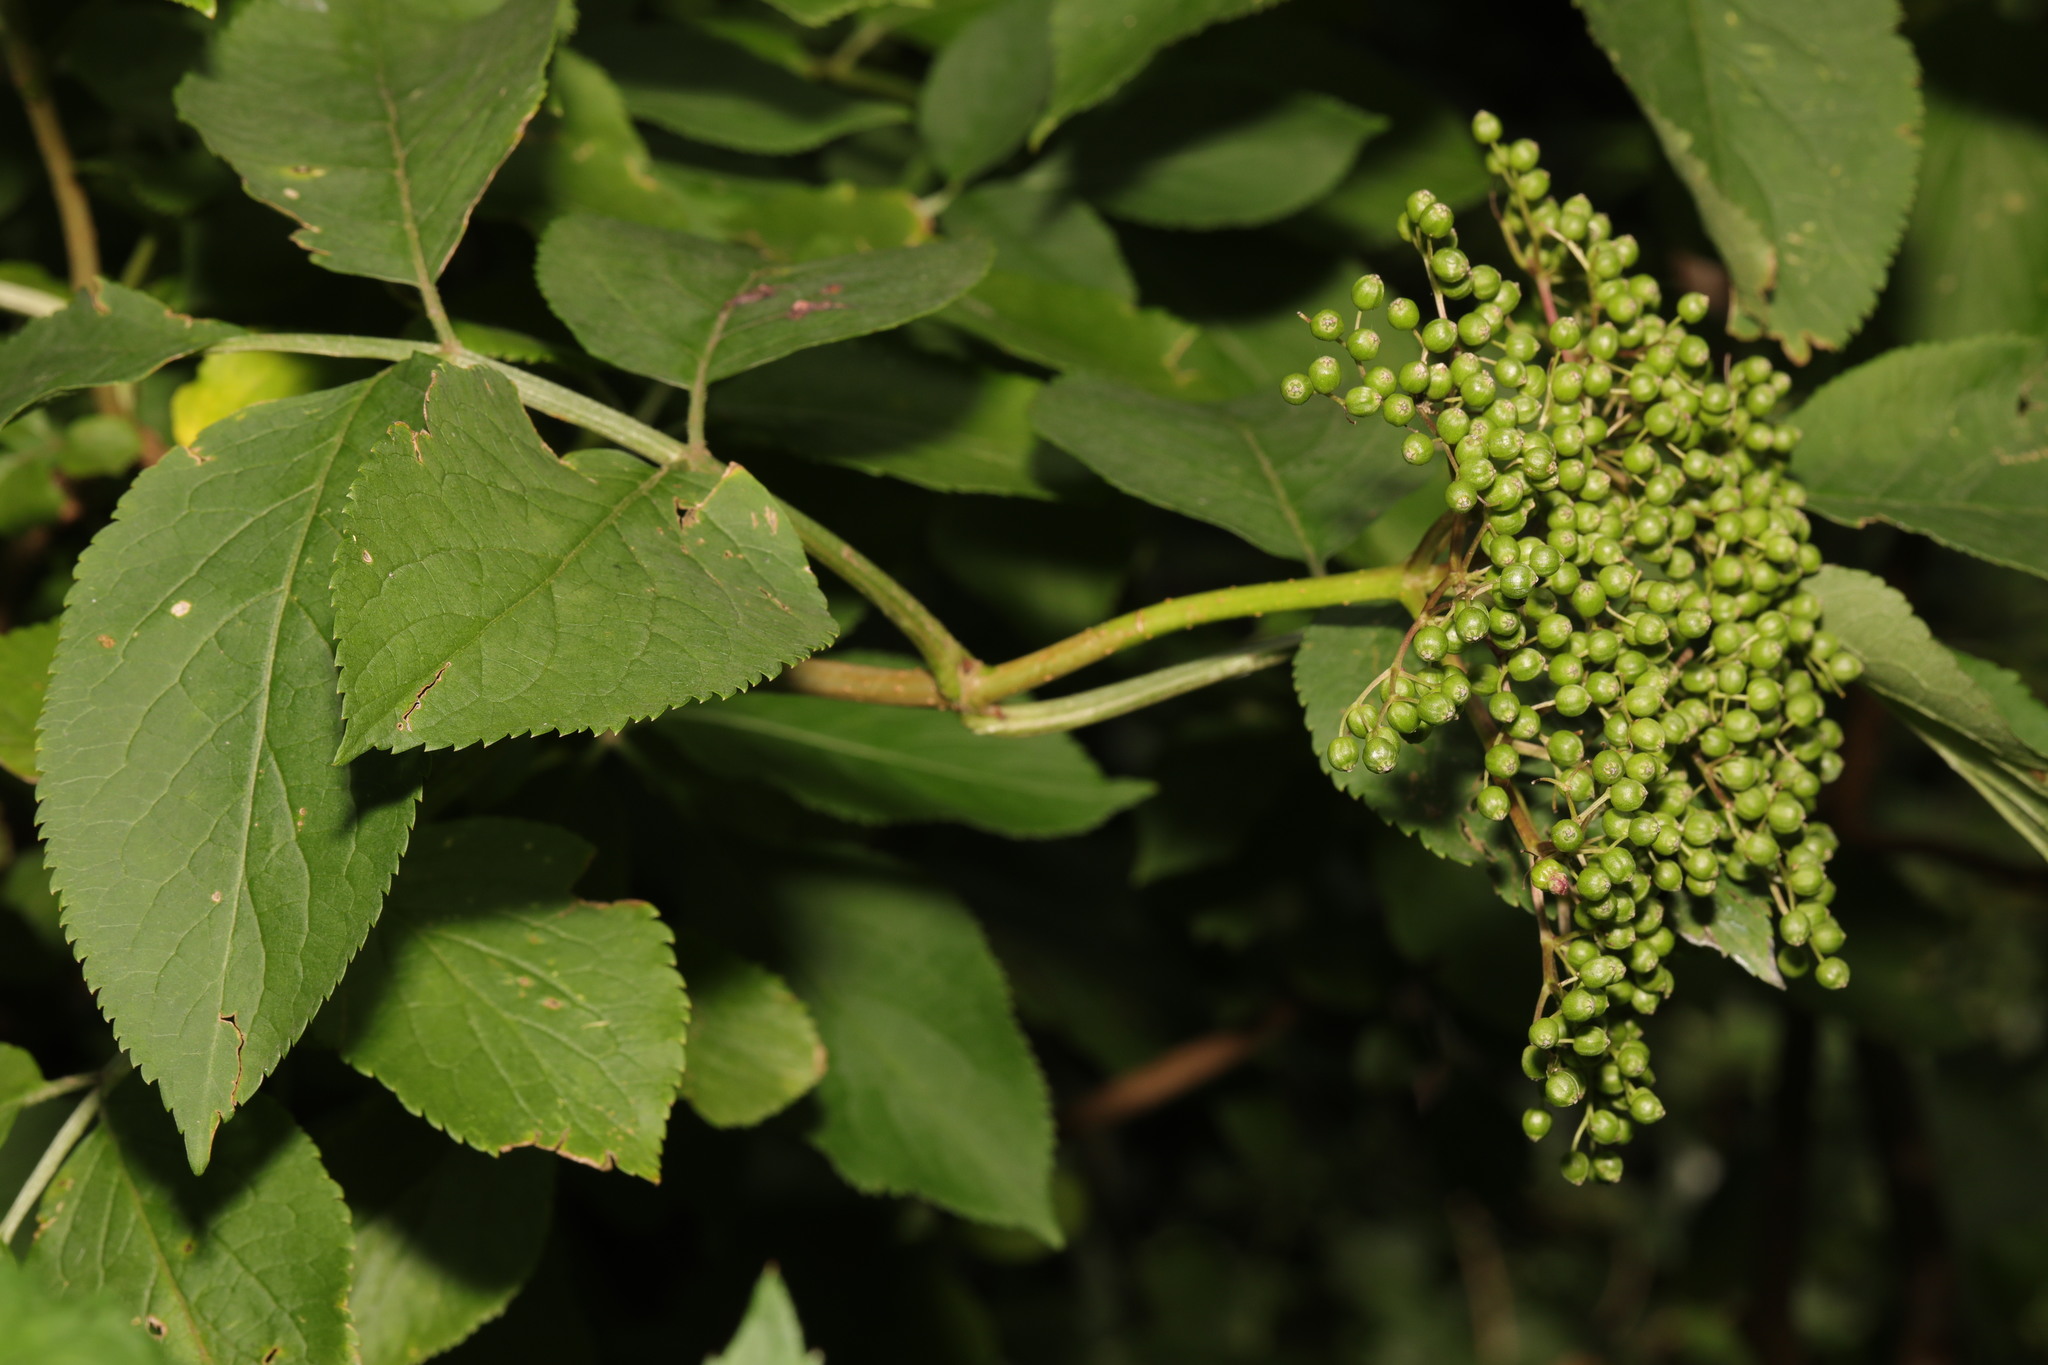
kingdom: Plantae
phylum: Tracheophyta
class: Magnoliopsida
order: Dipsacales
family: Viburnaceae
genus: Sambucus
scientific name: Sambucus nigra
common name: Elder
